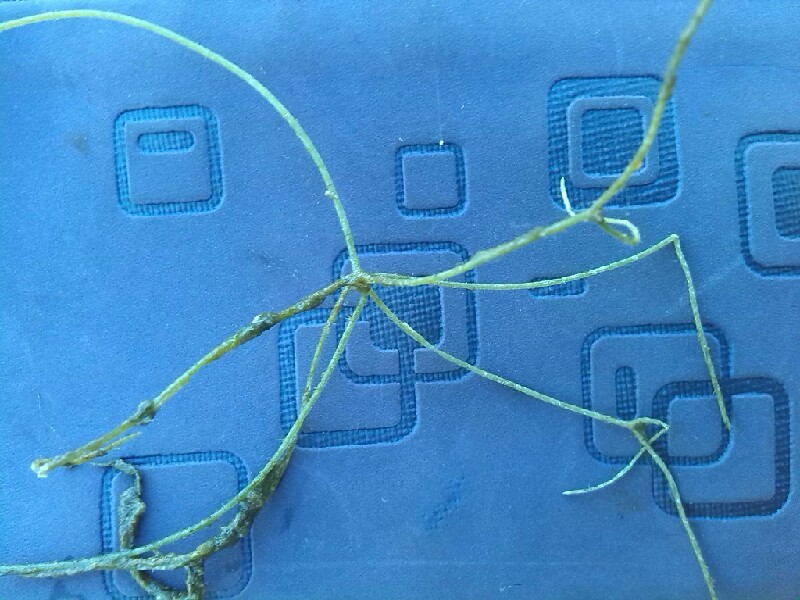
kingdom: Plantae
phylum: Charophyta
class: Charophyceae
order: Charales
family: Characeae
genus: Nitellopsis
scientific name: Nitellopsis obtusa
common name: Starry stonewort
